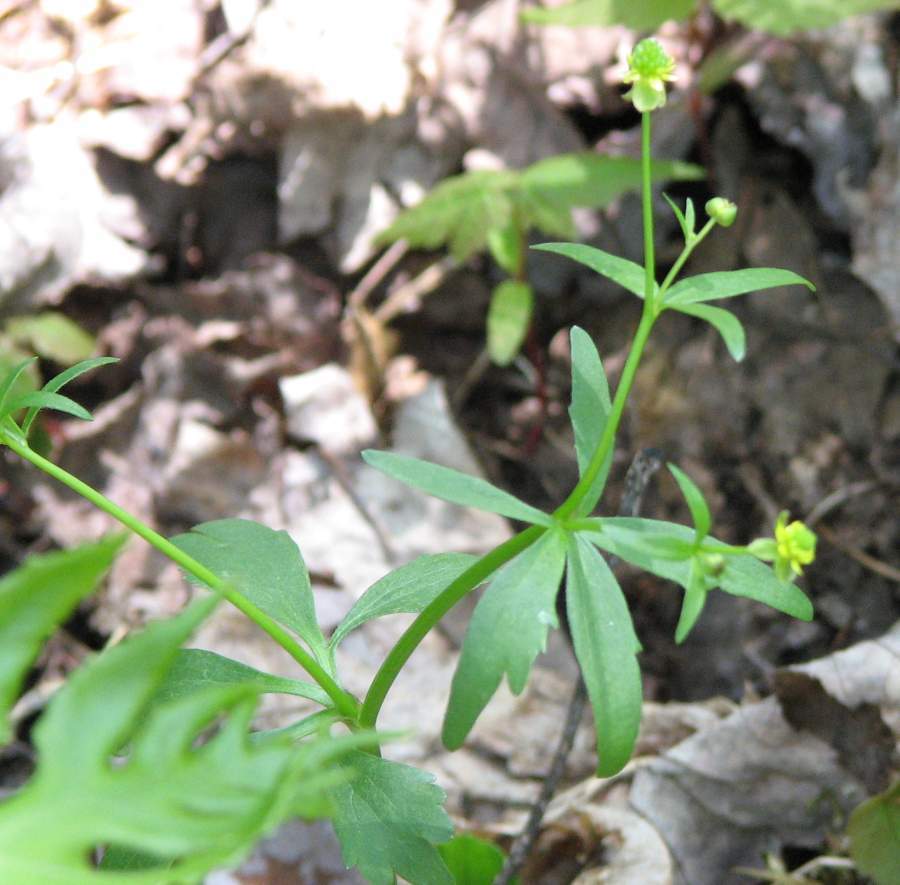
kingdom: Plantae
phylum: Tracheophyta
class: Magnoliopsida
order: Ranunculales
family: Ranunculaceae
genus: Ranunculus
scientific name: Ranunculus abortivus
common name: Early wood buttercup
